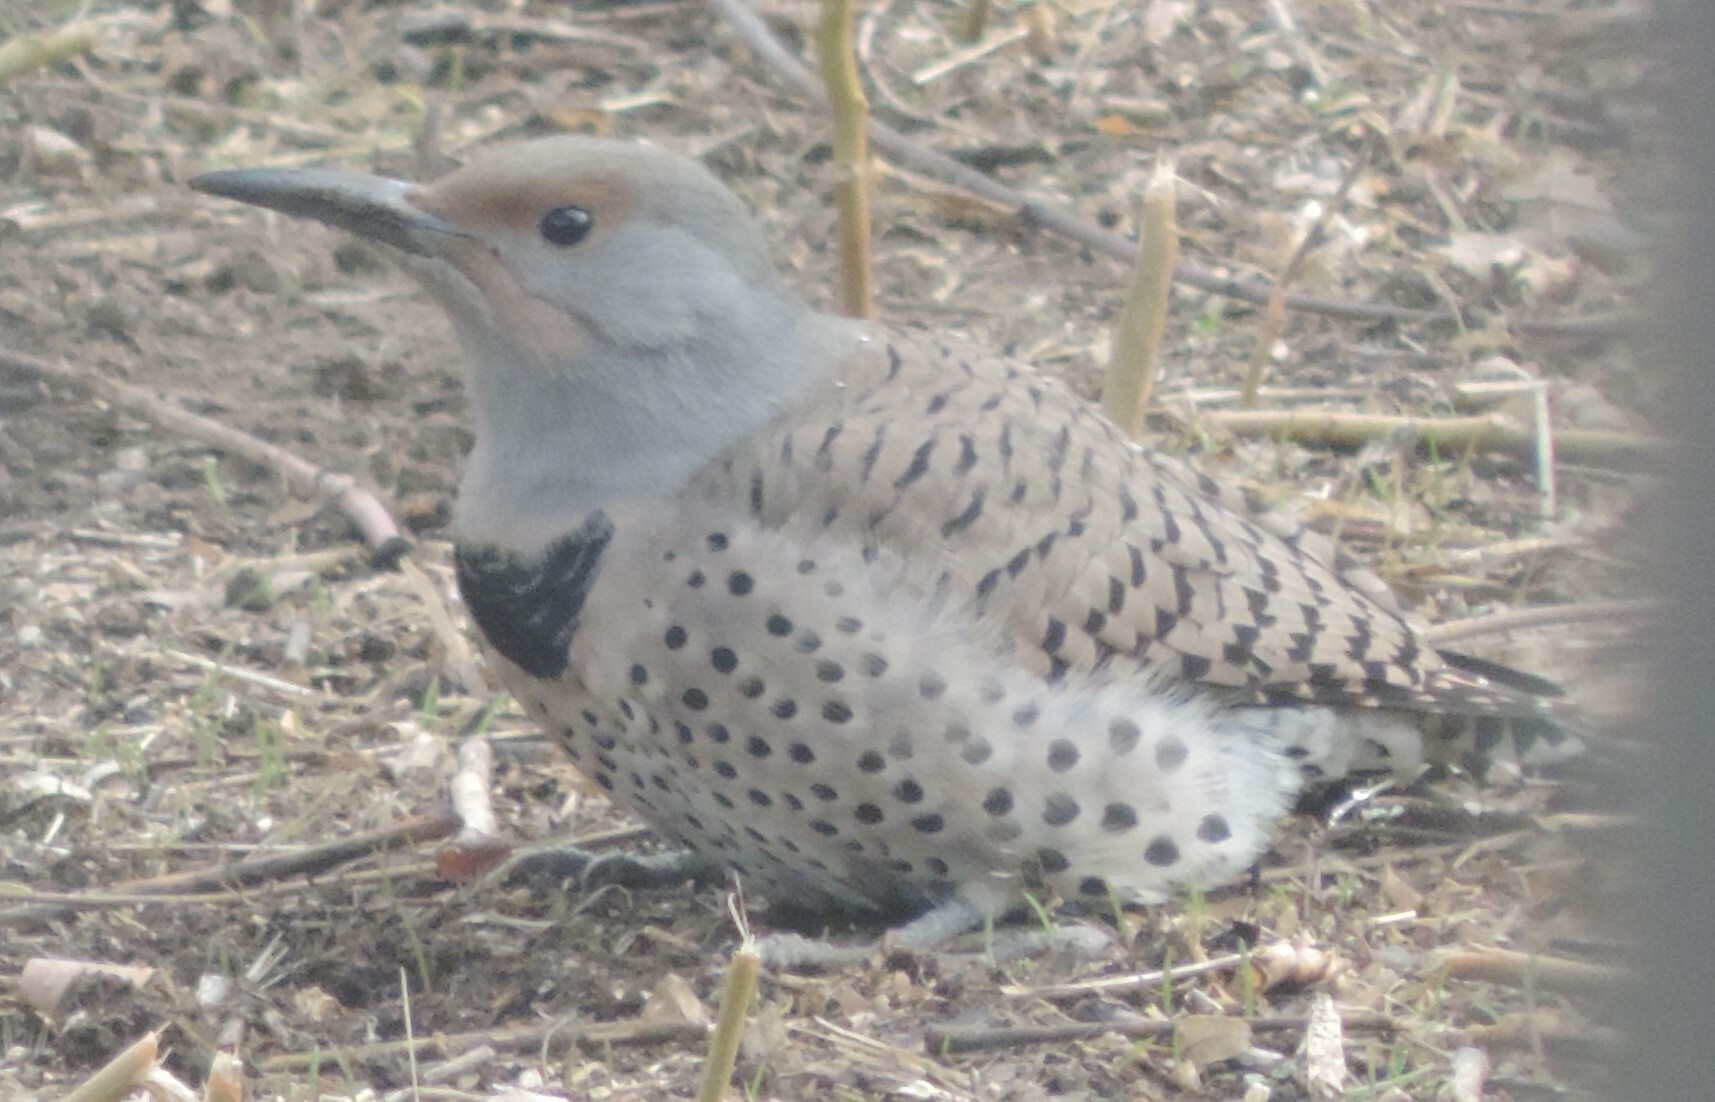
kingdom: Animalia
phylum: Chordata
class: Aves
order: Piciformes
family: Picidae
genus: Colaptes
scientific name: Colaptes auratus
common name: Northern flicker
